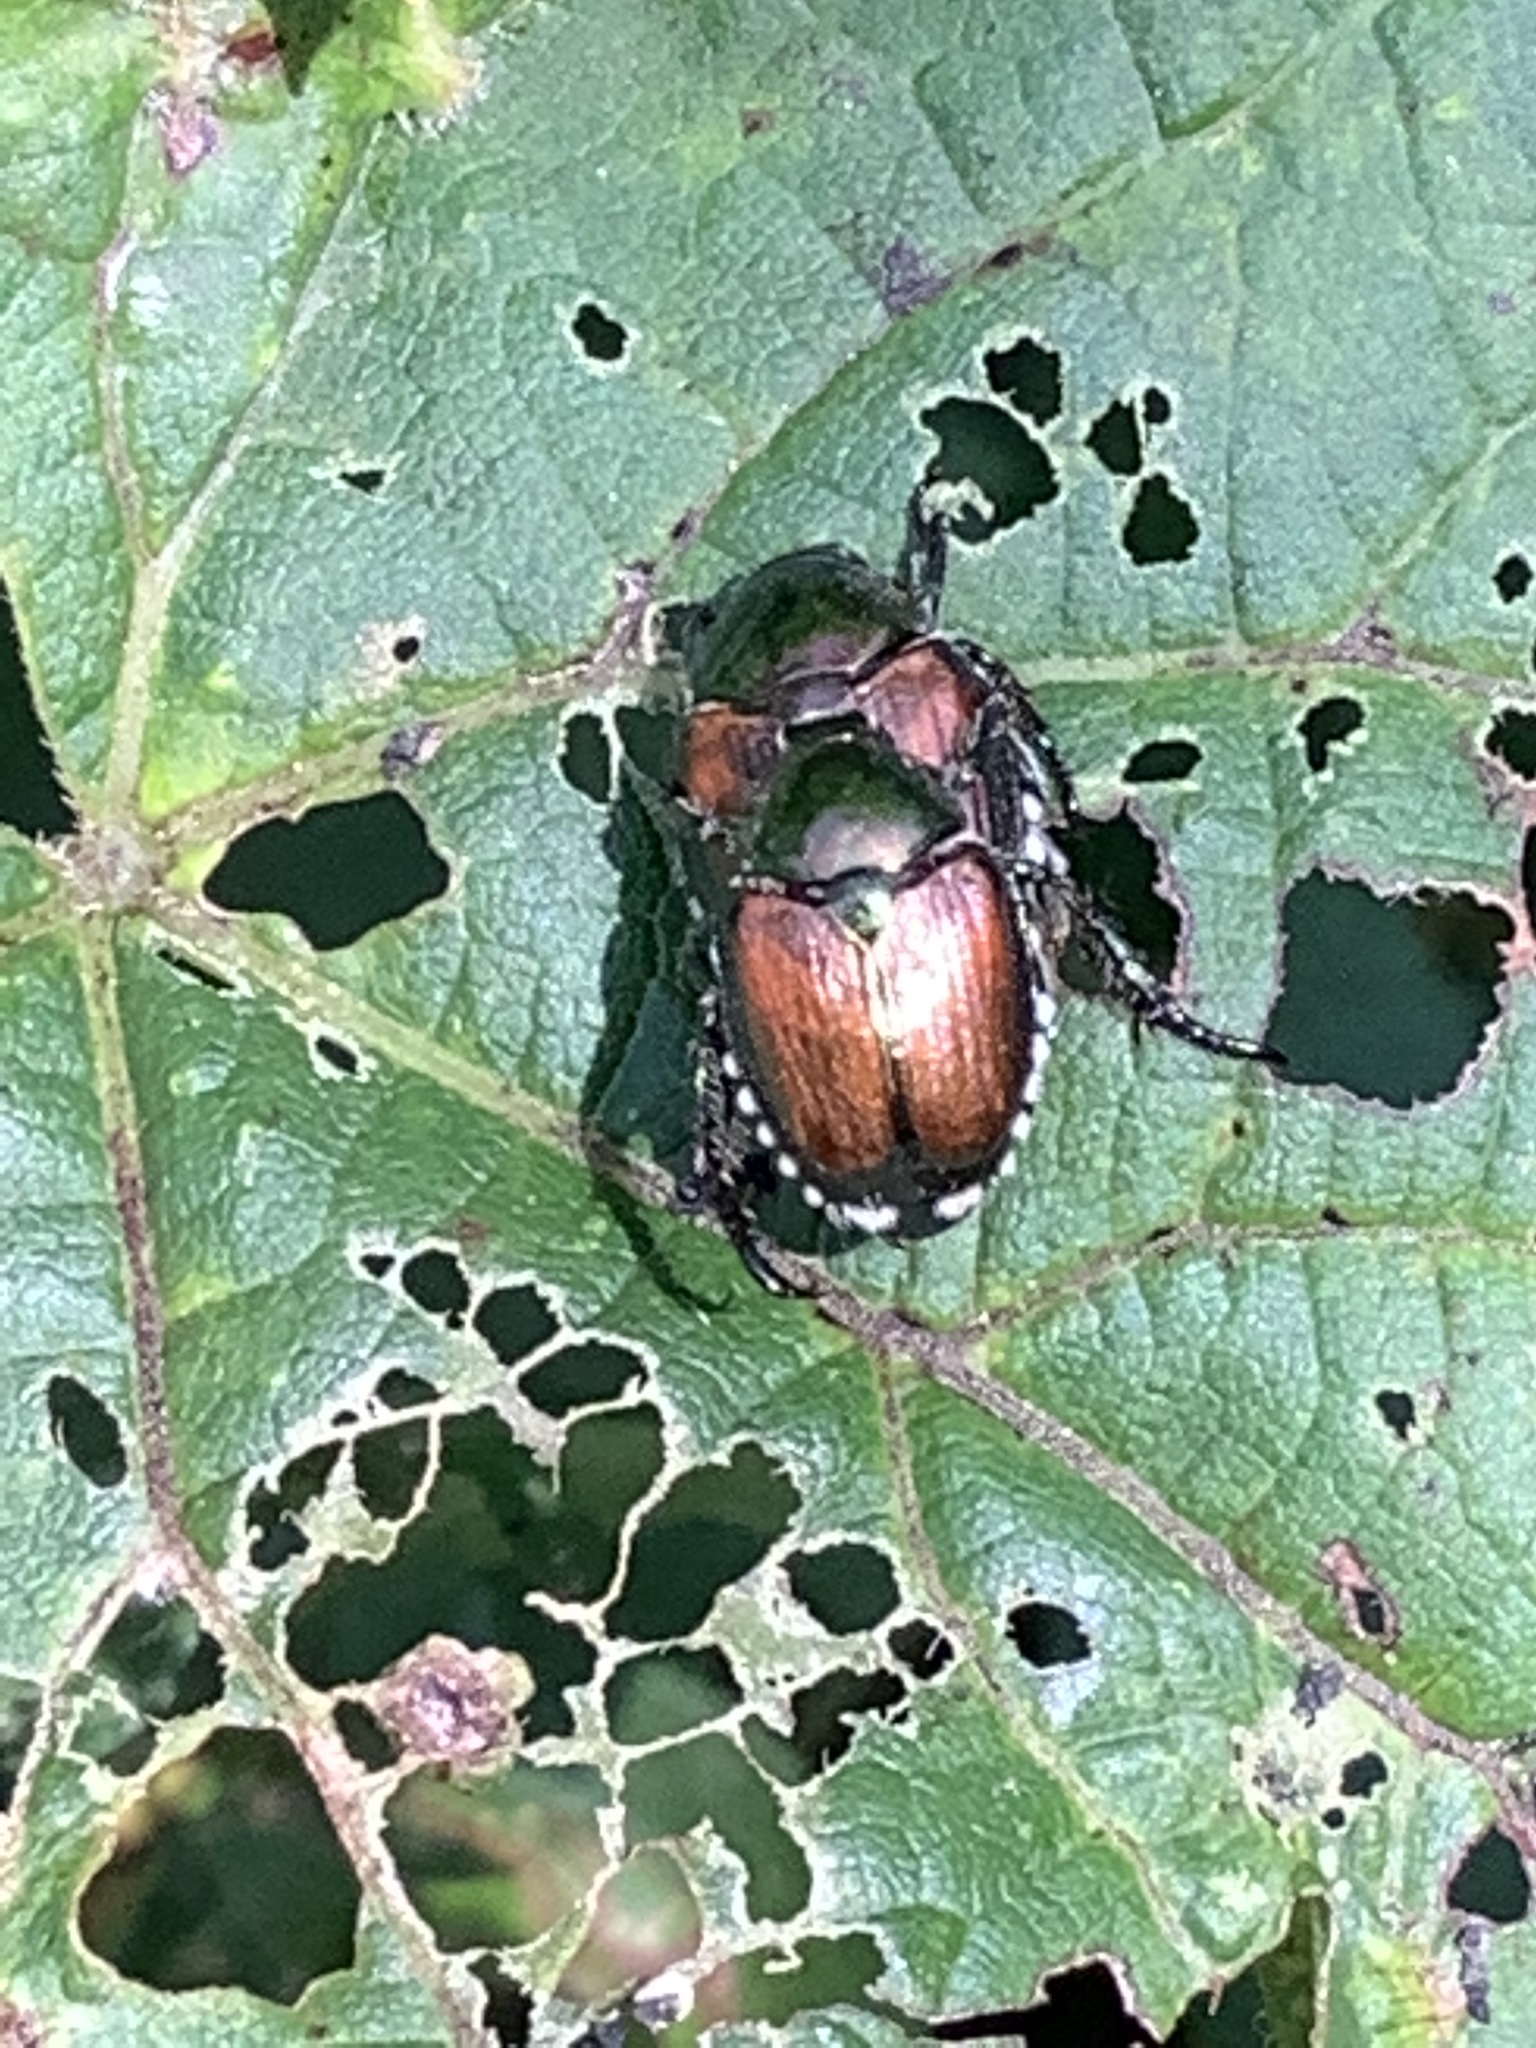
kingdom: Animalia
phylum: Arthropoda
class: Insecta
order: Coleoptera
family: Scarabaeidae
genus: Popillia
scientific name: Popillia japonica
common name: Japanese beetle
